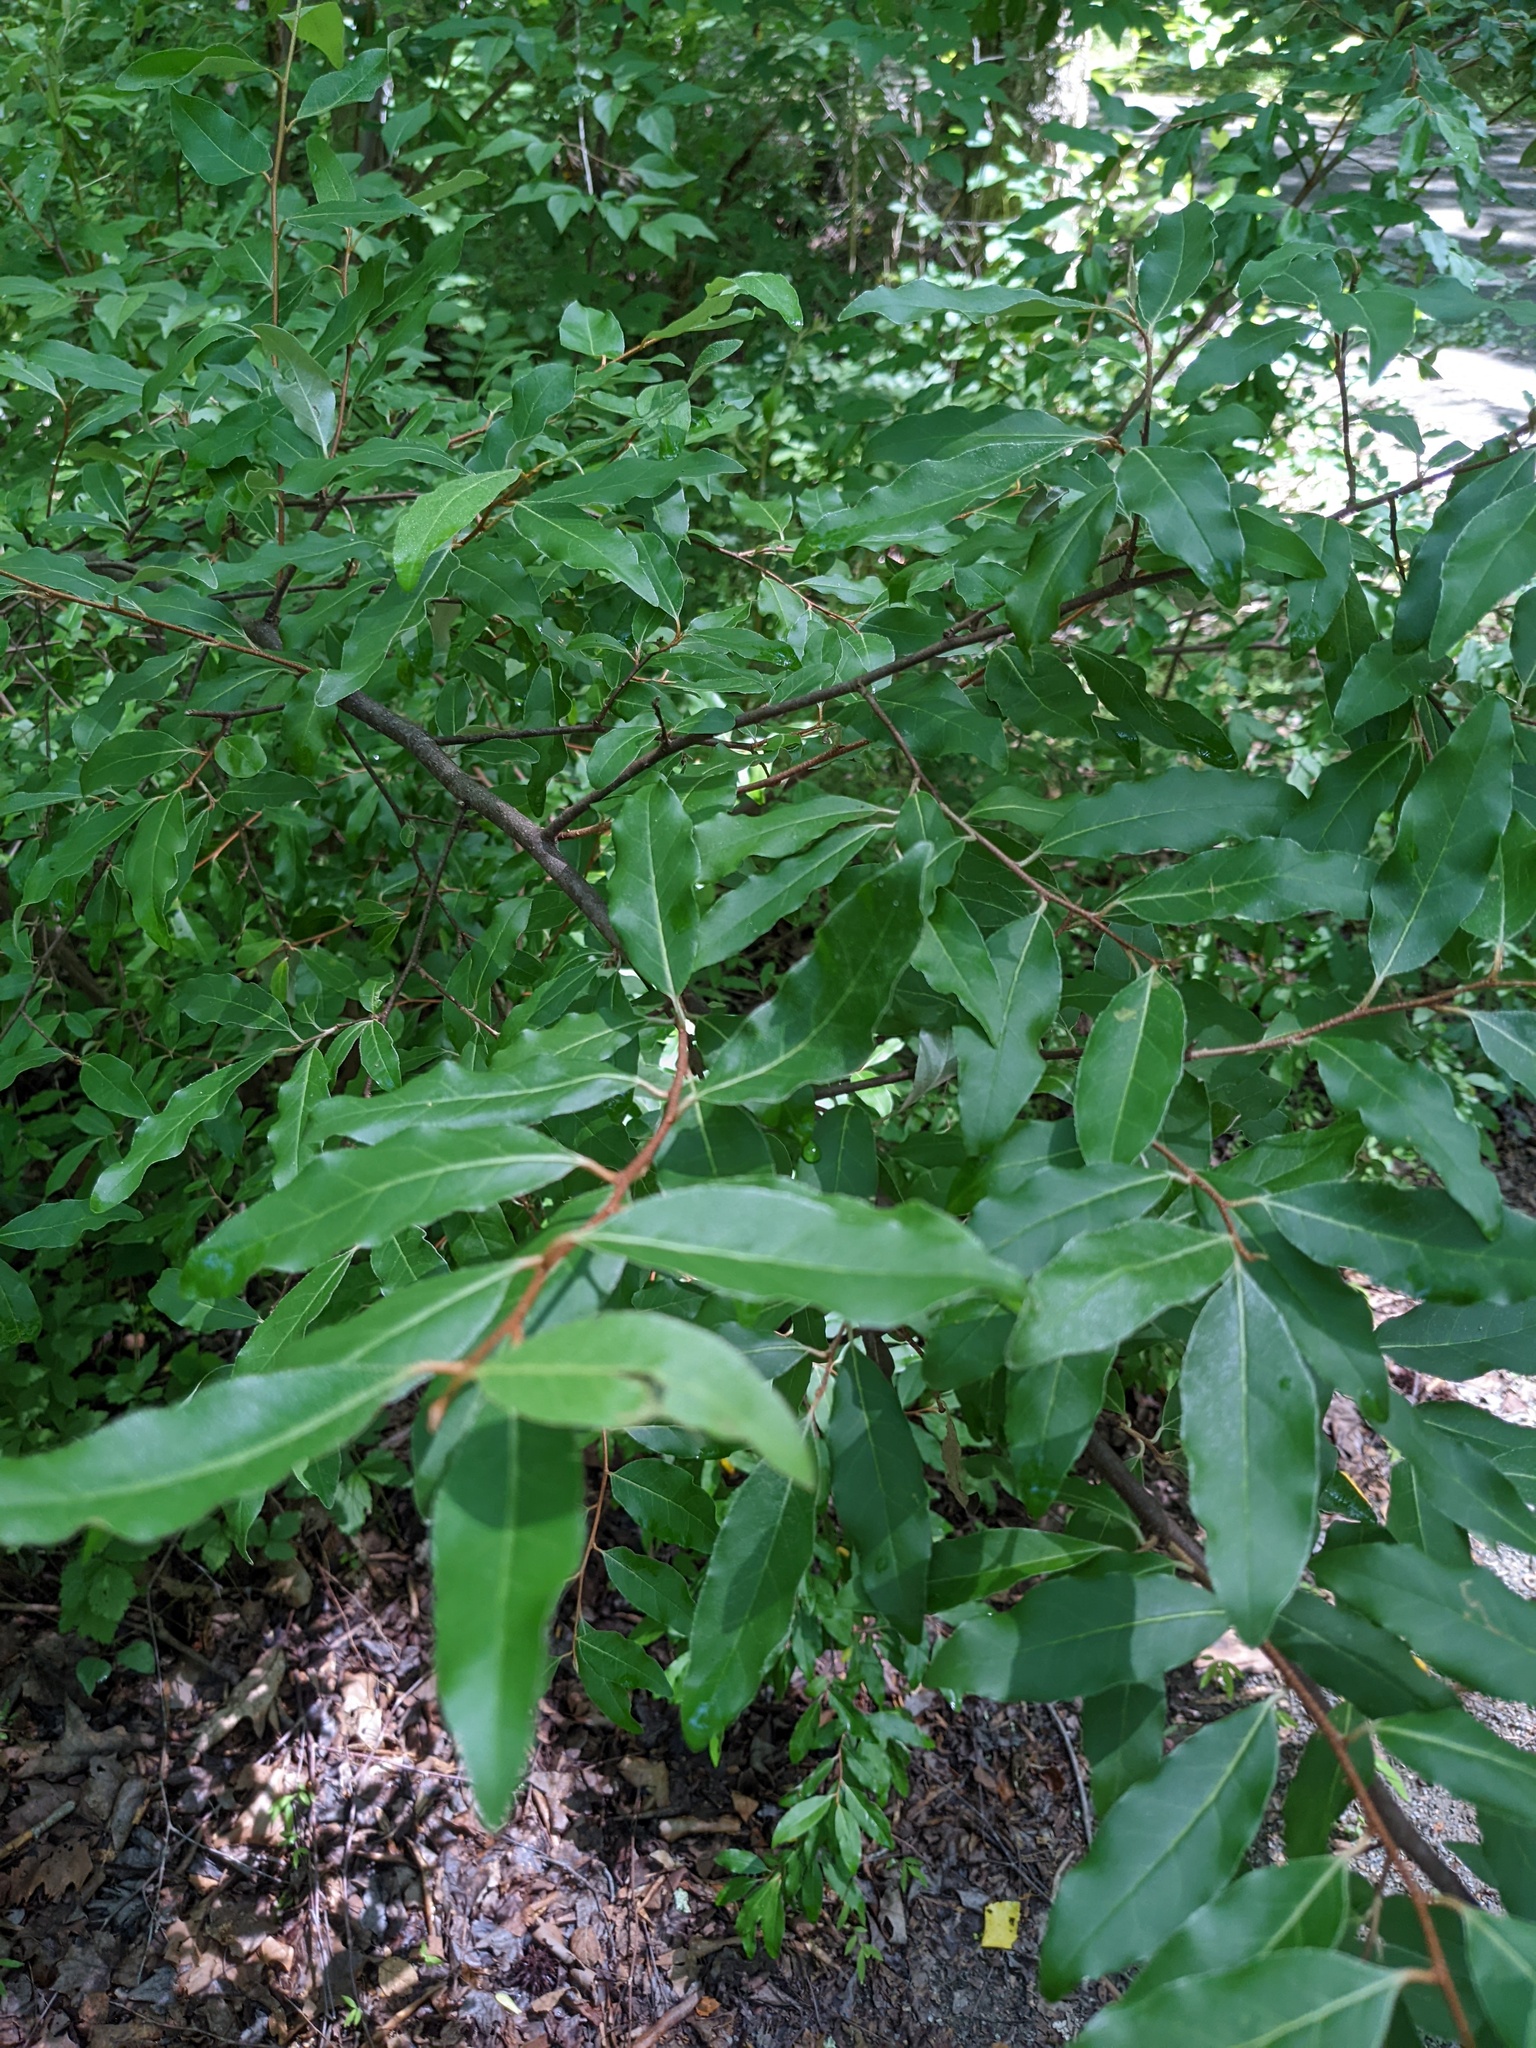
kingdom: Plantae
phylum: Tracheophyta
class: Magnoliopsida
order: Rosales
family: Elaeagnaceae
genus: Elaeagnus
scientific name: Elaeagnus umbellata
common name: Autumn olive
